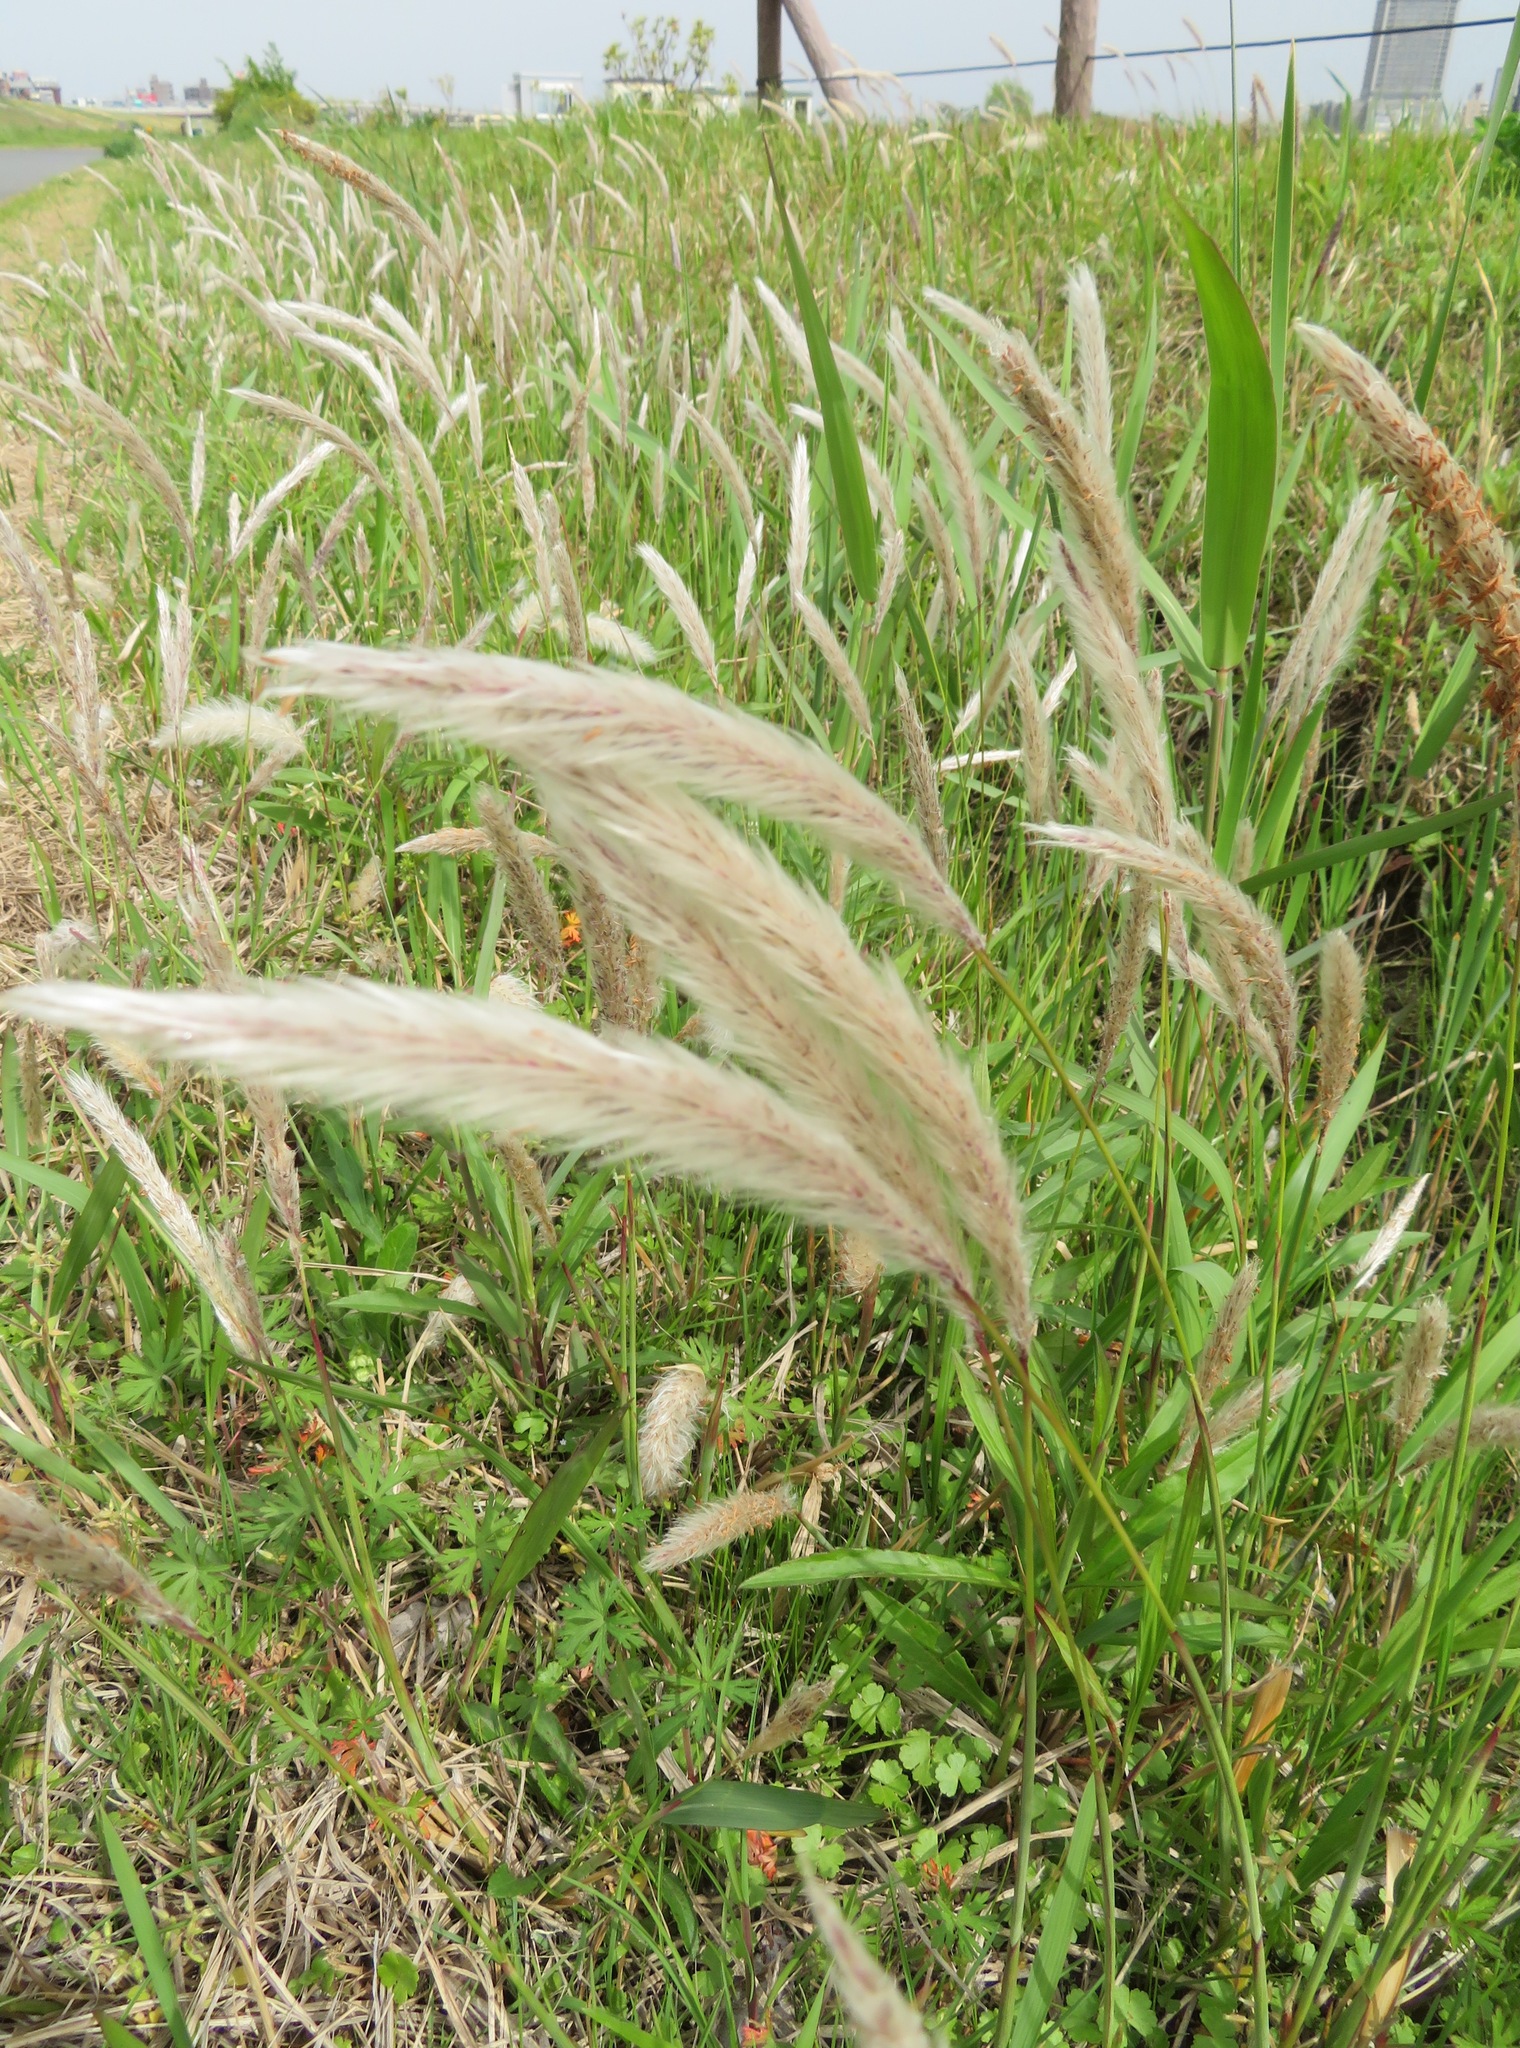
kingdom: Plantae
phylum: Tracheophyta
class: Liliopsida
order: Poales
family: Poaceae
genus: Imperata
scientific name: Imperata cylindrica
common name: Cogongrass
